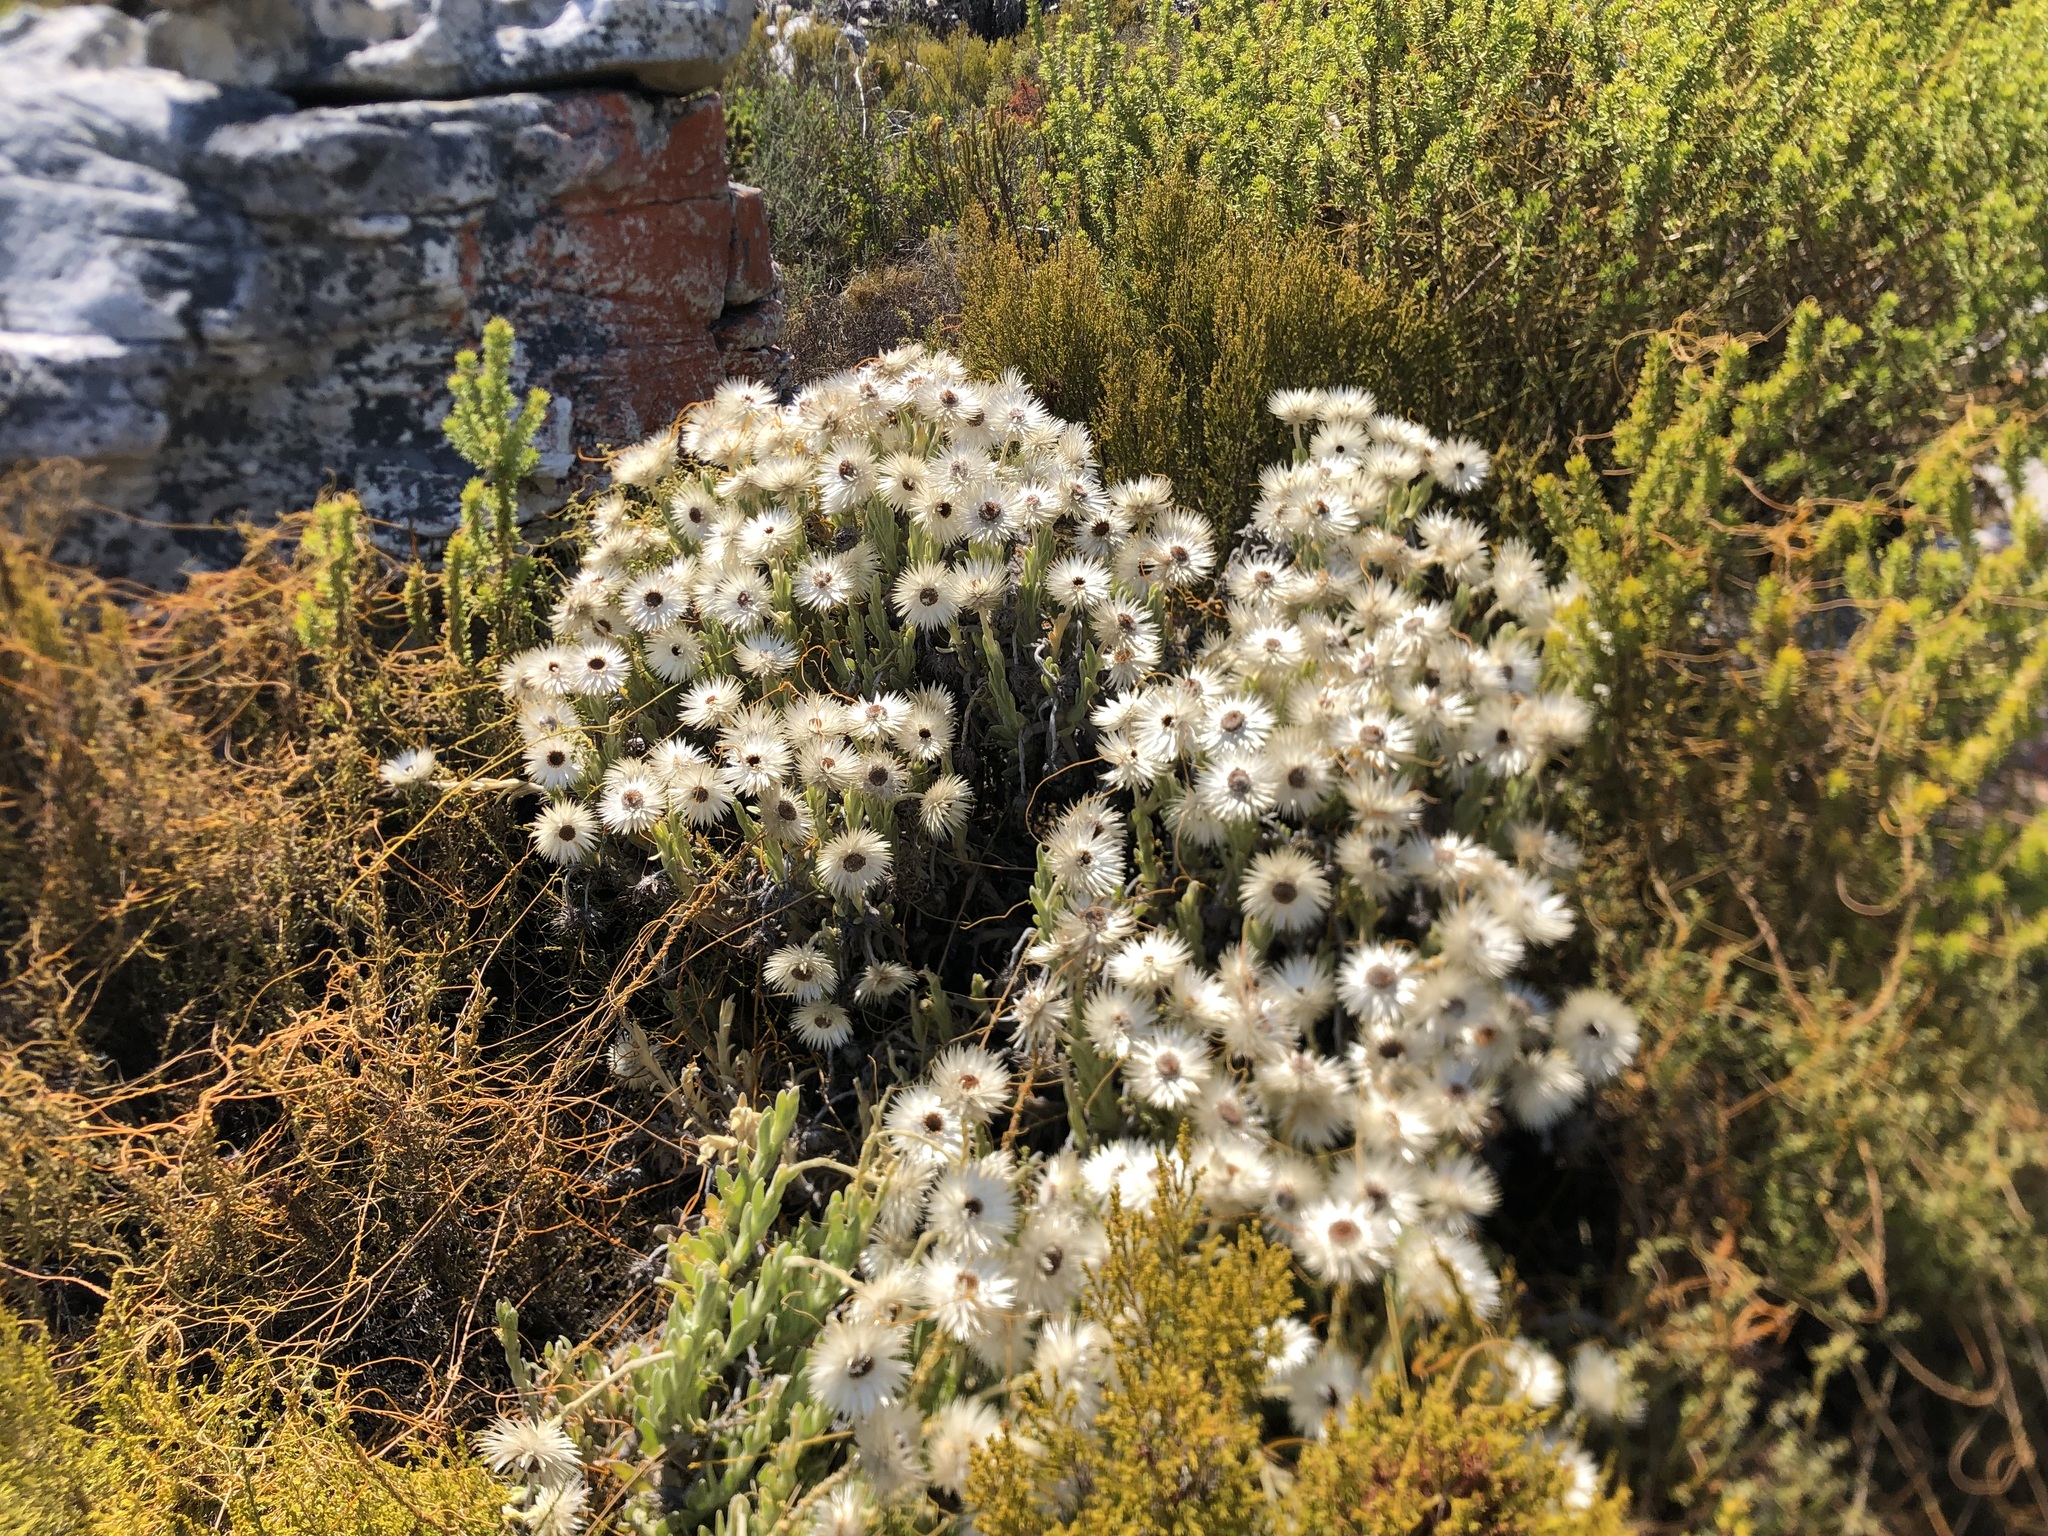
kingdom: Plantae
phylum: Tracheophyta
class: Magnoliopsida
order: Asterales
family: Asteraceae
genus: Syncarpha
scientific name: Syncarpha vestita
